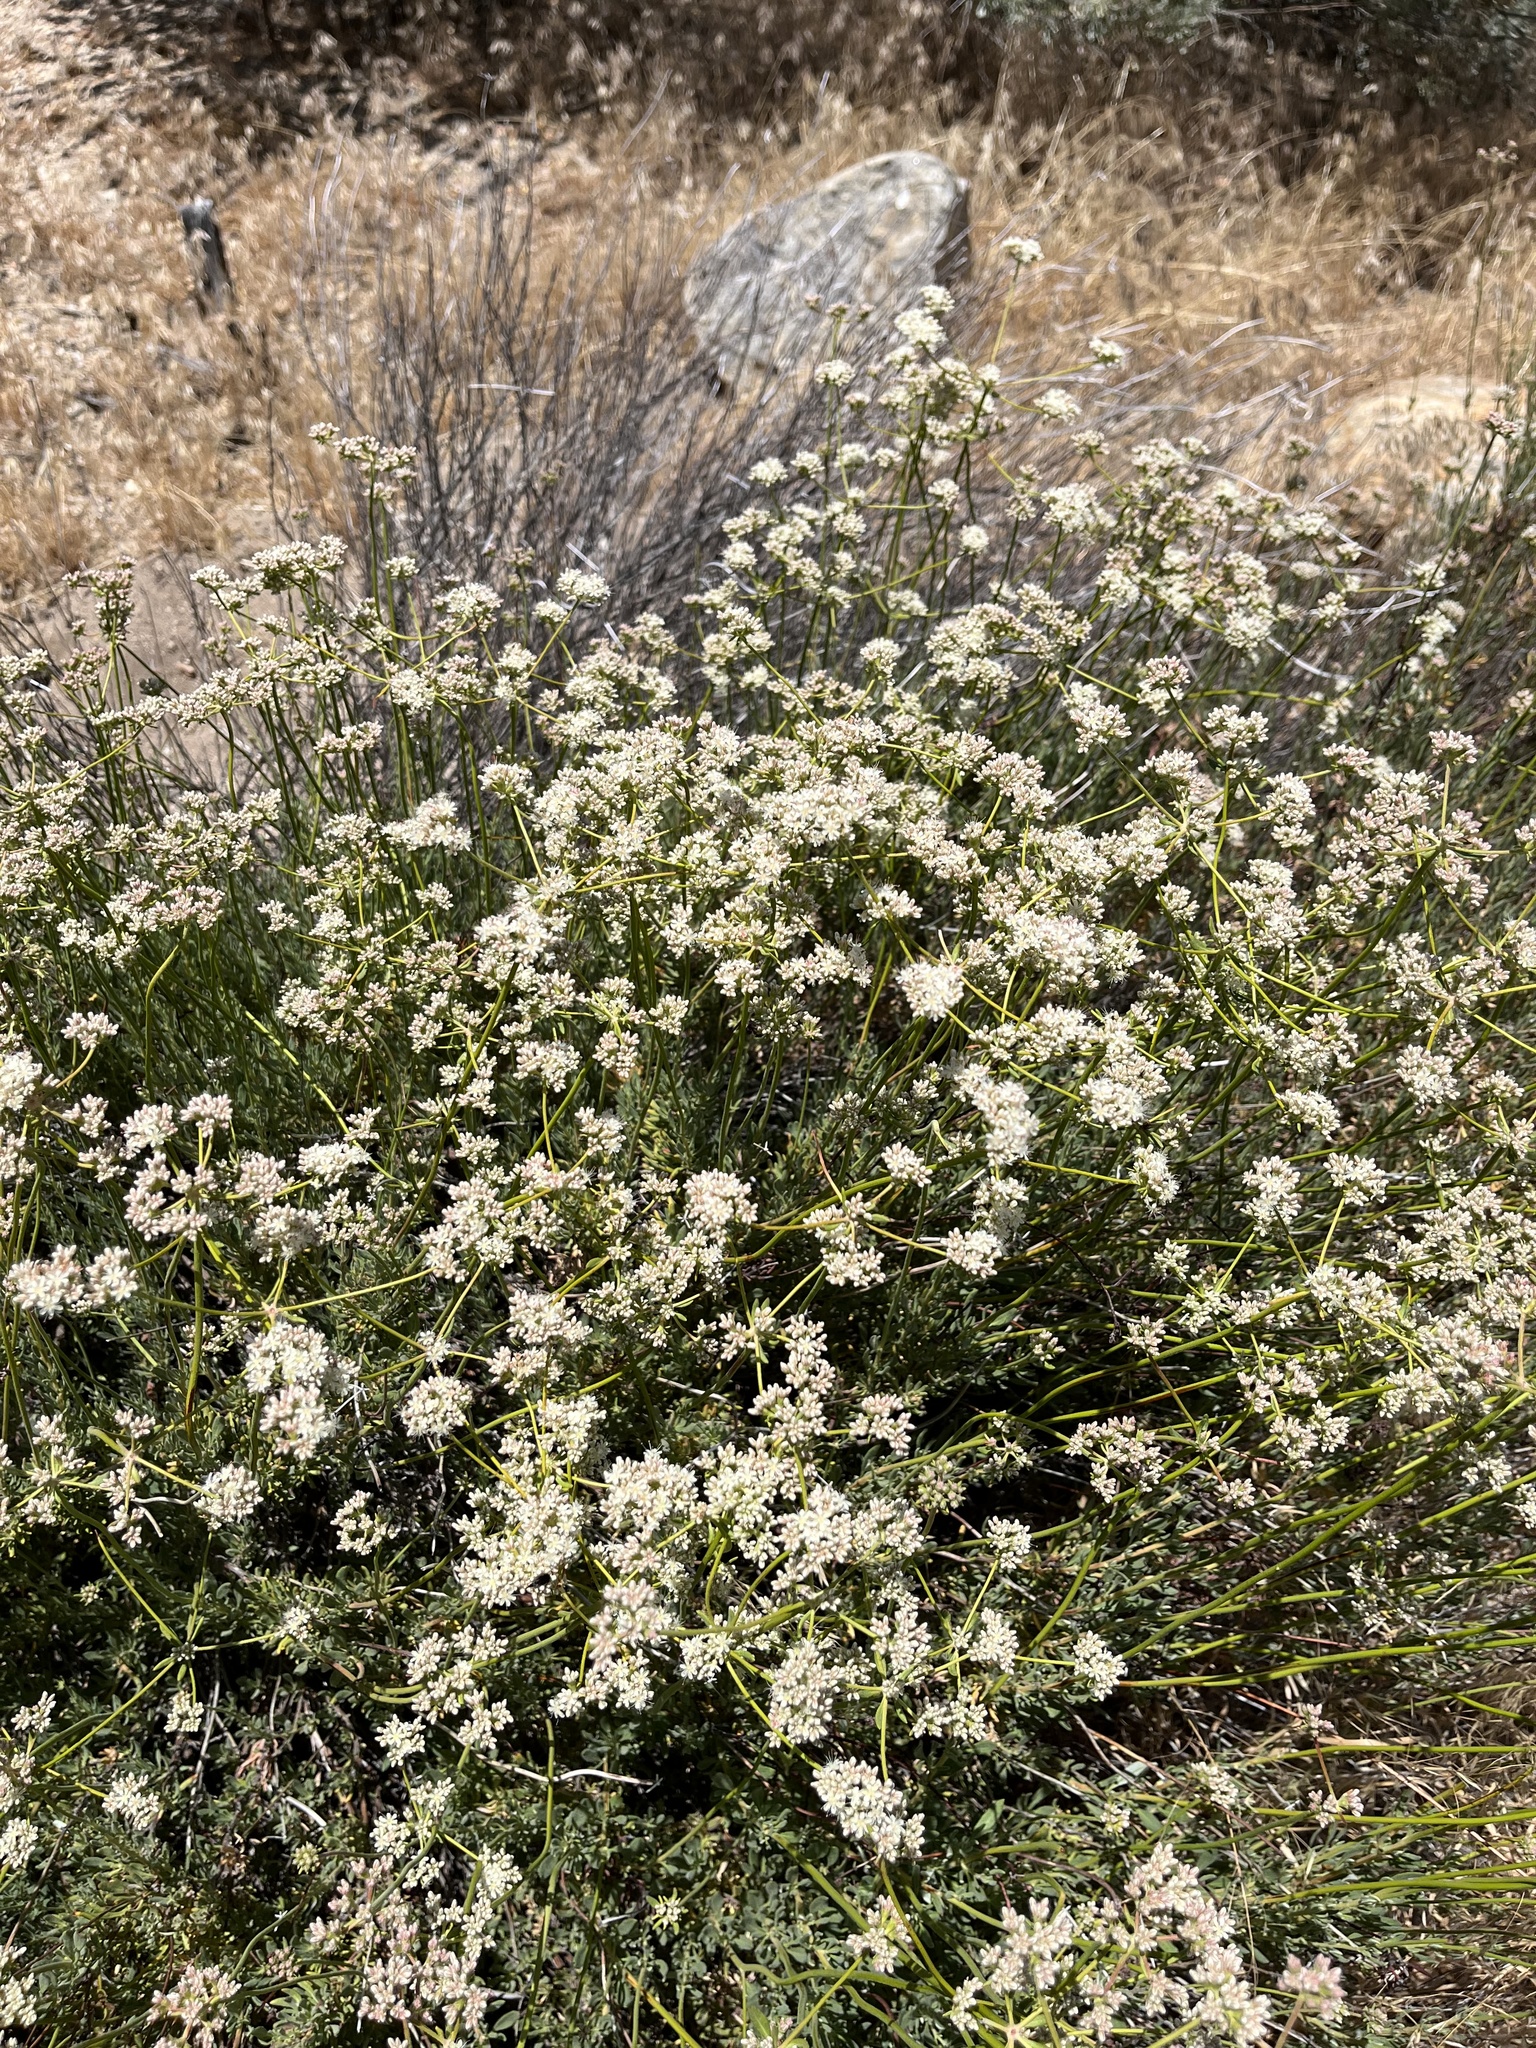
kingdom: Plantae
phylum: Tracheophyta
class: Magnoliopsida
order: Caryophyllales
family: Polygonaceae
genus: Eriogonum
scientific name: Eriogonum fasciculatum
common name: California wild buckwheat
